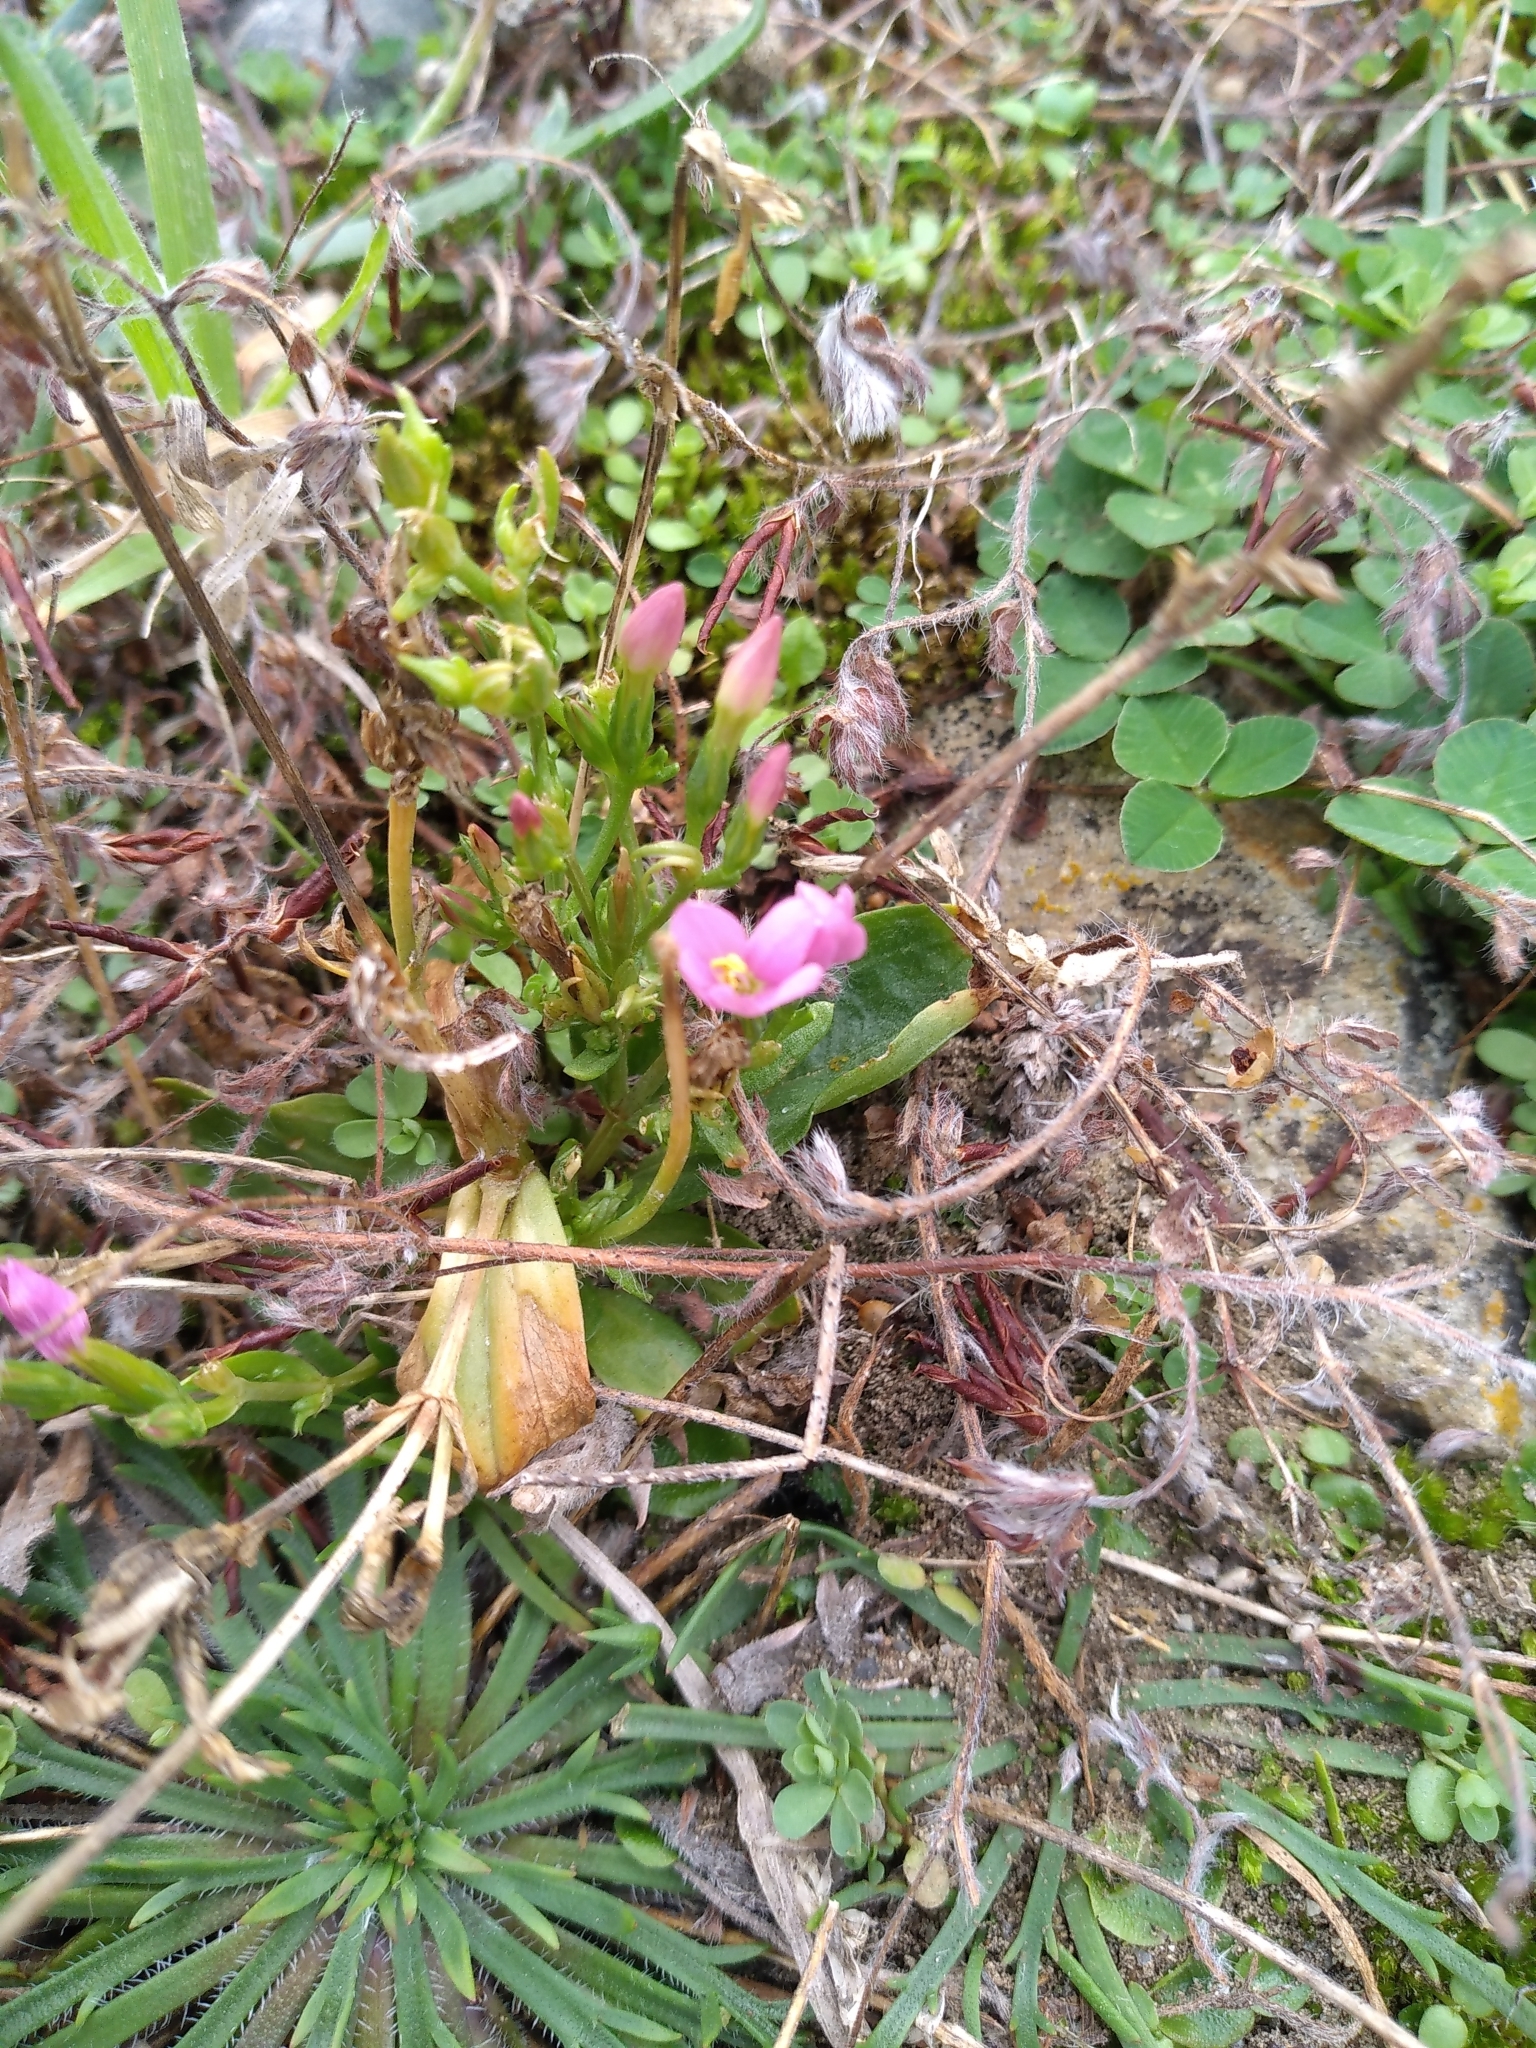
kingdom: Plantae
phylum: Tracheophyta
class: Magnoliopsida
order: Gentianales
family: Gentianaceae
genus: Centaurium
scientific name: Centaurium erythraea
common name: Common centaury
